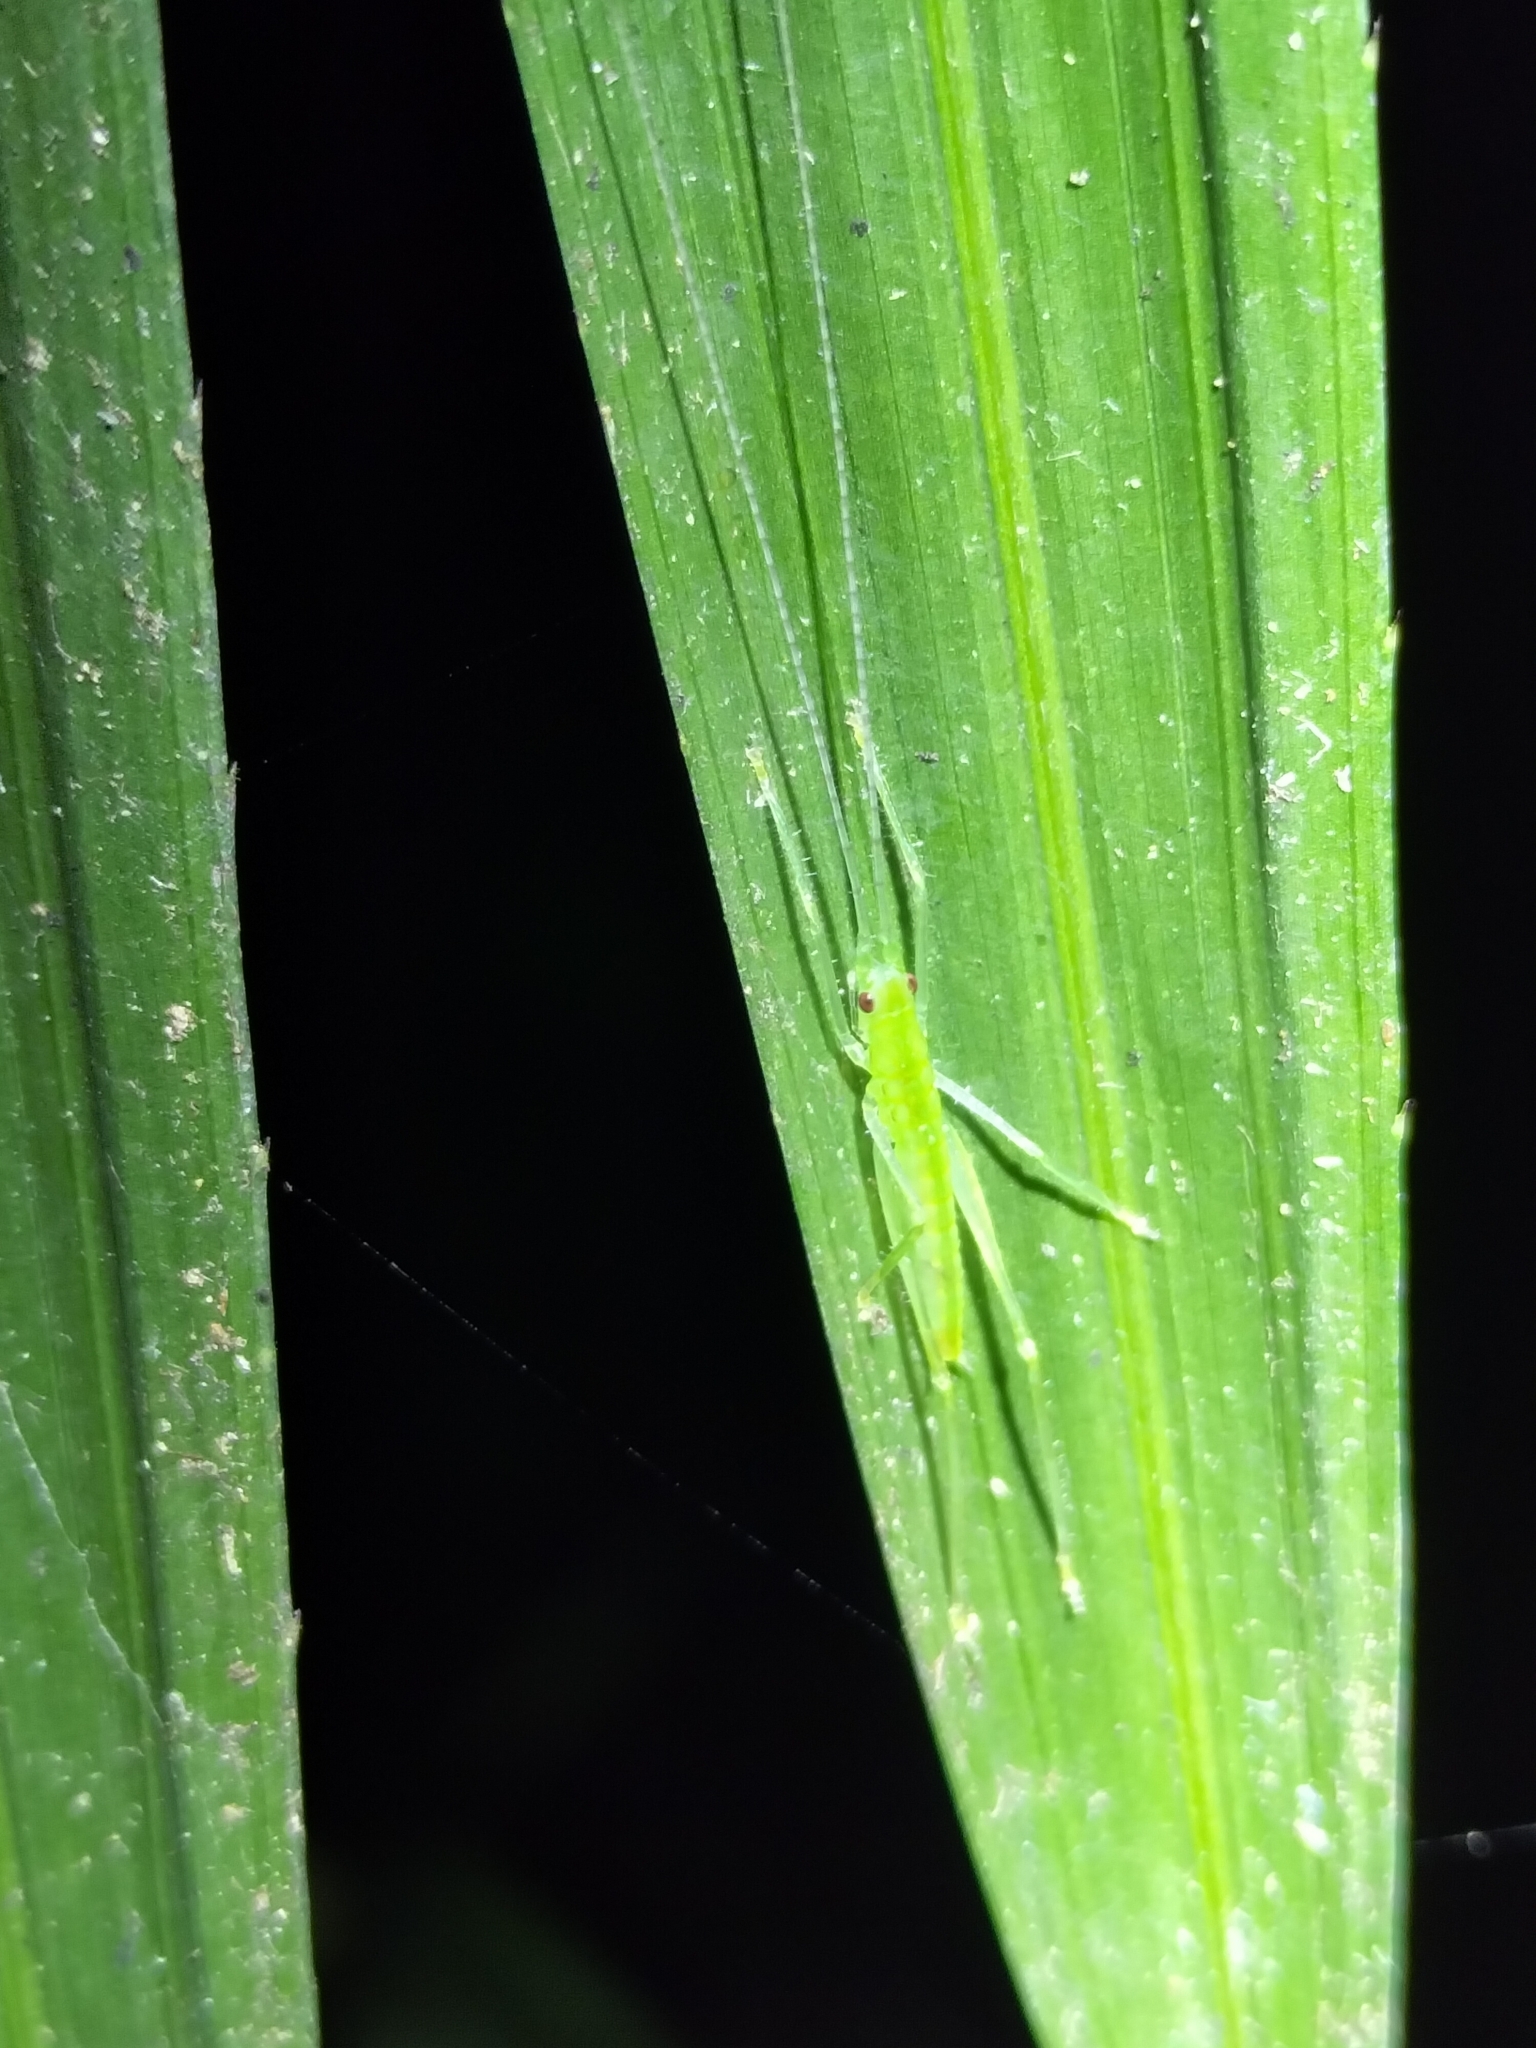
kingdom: Animalia
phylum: Arthropoda
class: Insecta
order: Orthoptera
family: Tettigoniidae
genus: Greenagraecia
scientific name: Greenagraecia attenuata
